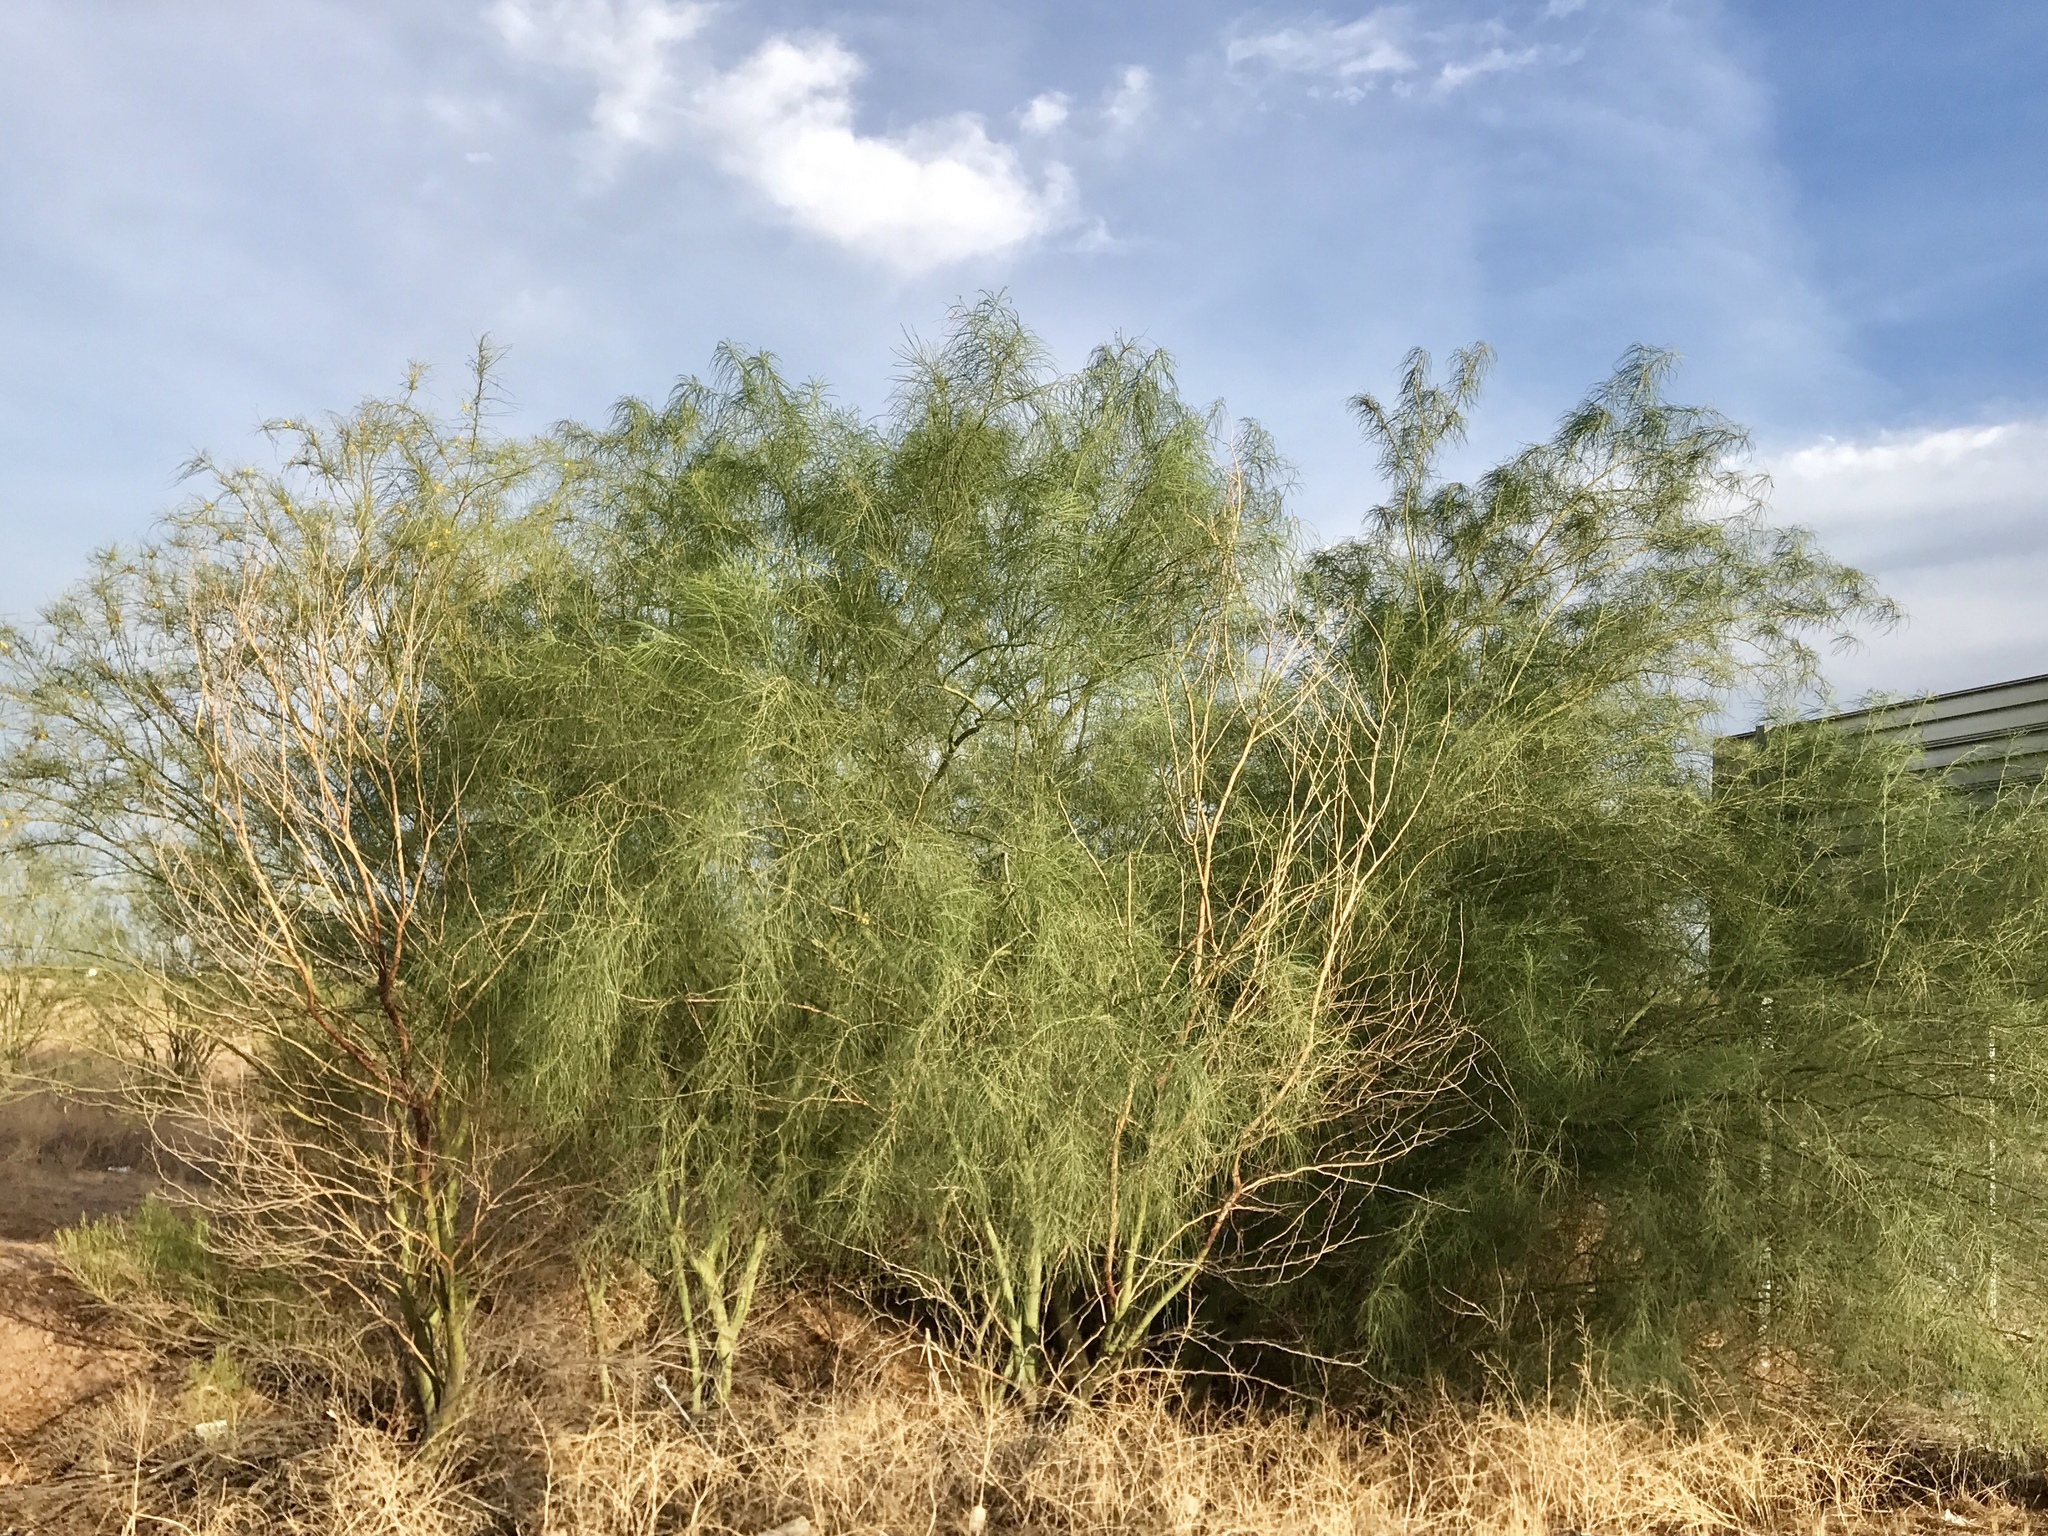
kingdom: Plantae
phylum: Tracheophyta
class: Magnoliopsida
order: Fabales
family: Fabaceae
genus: Parkinsonia
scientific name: Parkinsonia aculeata
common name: Jerusalem thorn
